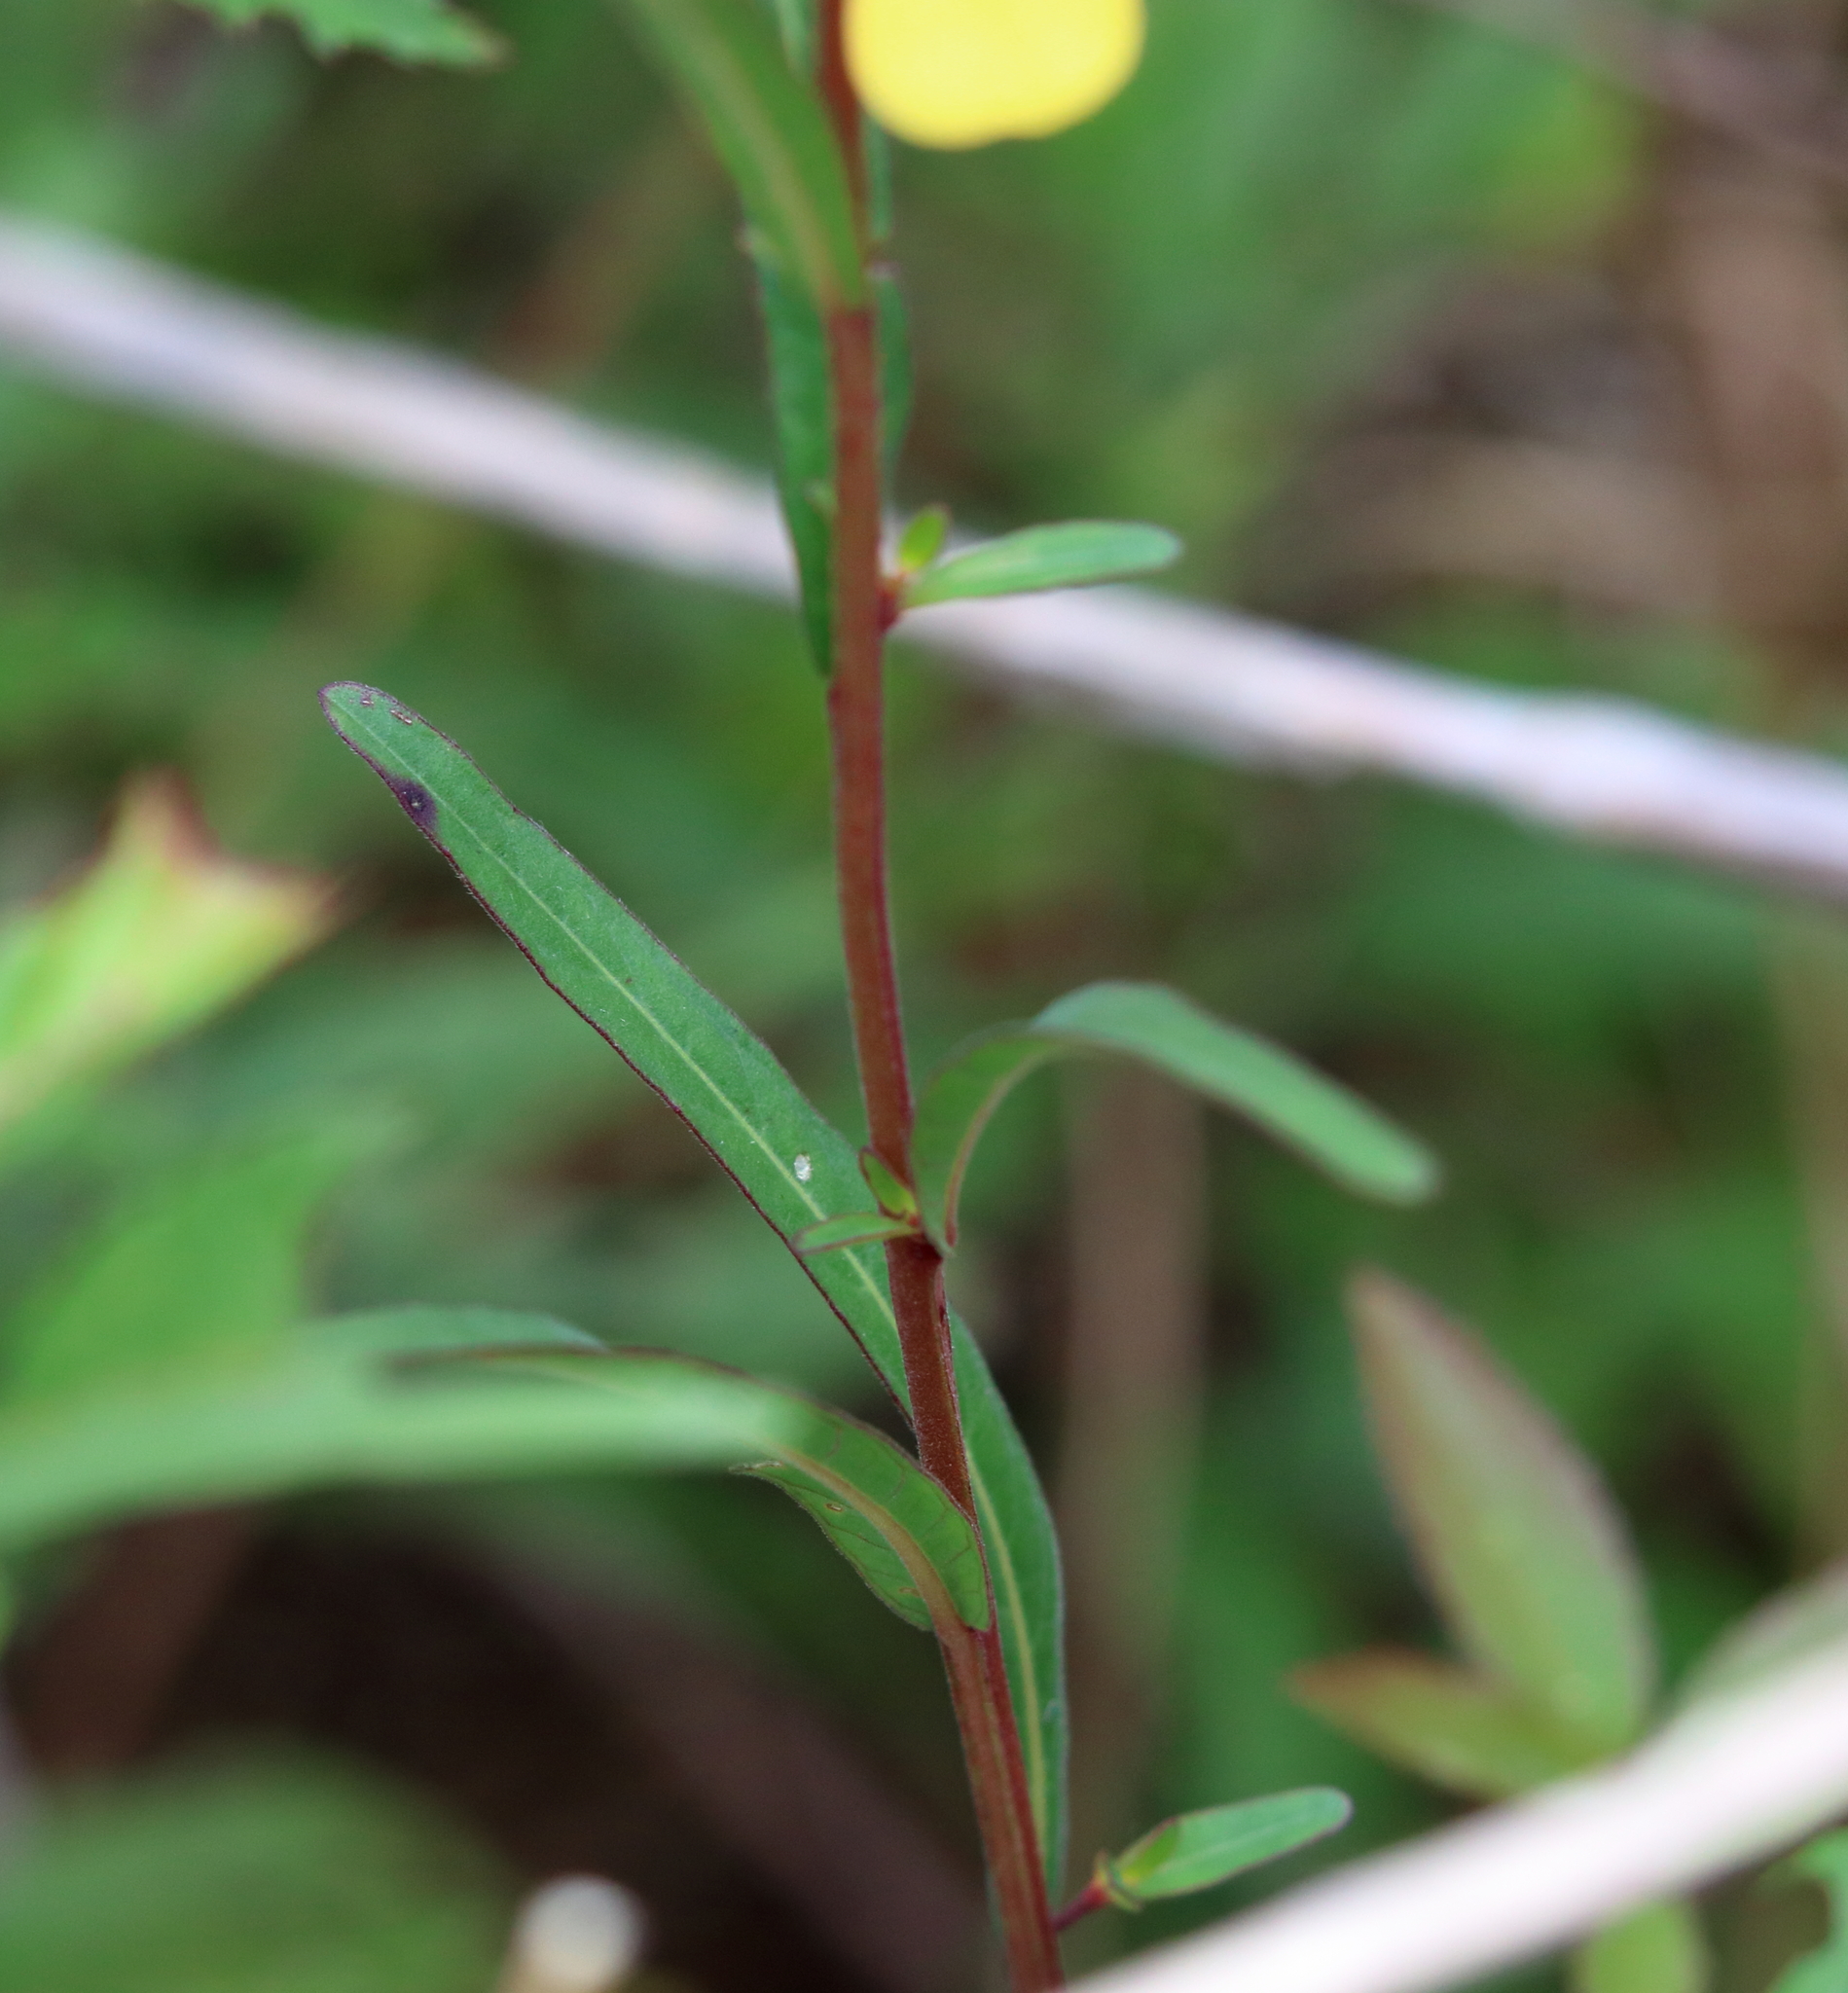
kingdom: Plantae
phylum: Tracheophyta
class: Magnoliopsida
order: Myrtales
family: Onagraceae
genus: Ludwigia
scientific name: Ludwigia maritima
